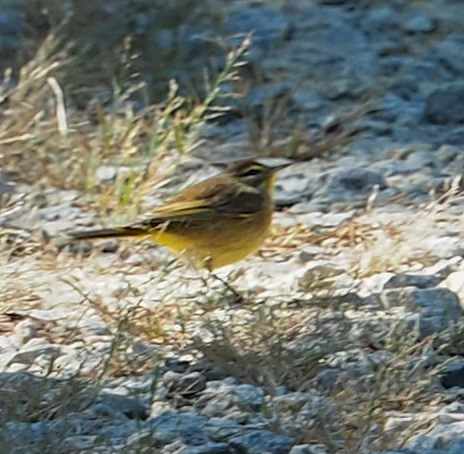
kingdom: Animalia
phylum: Chordata
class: Aves
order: Passeriformes
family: Parulidae
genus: Setophaga
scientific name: Setophaga palmarum
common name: Palm warbler
